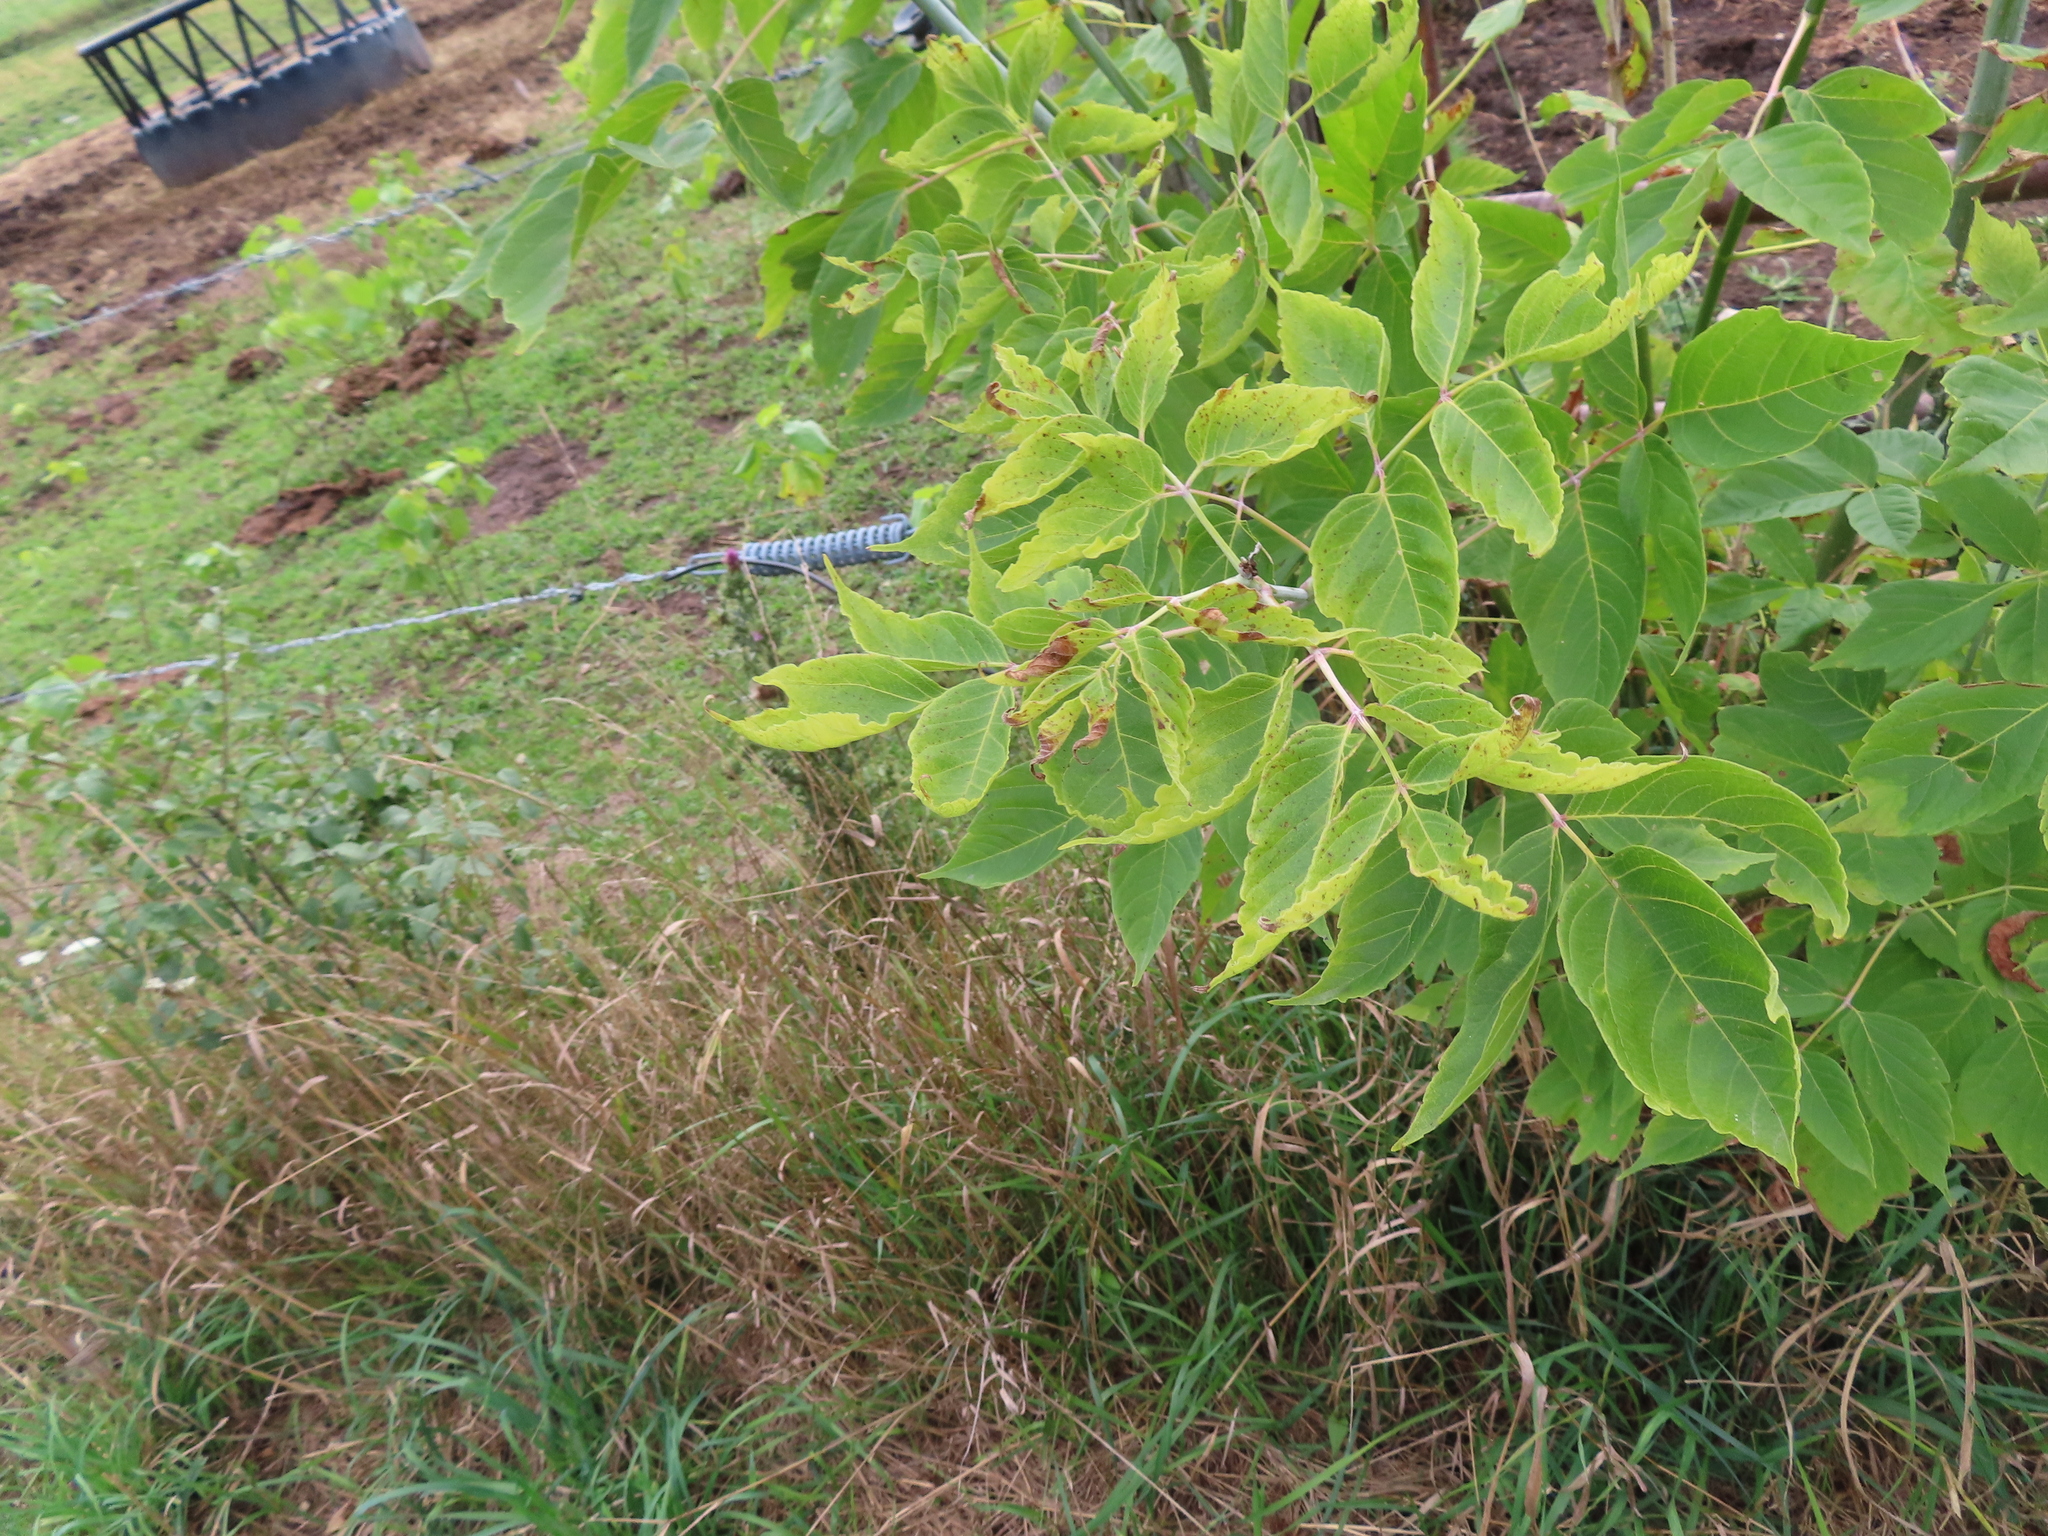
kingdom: Plantae
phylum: Tracheophyta
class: Magnoliopsida
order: Sapindales
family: Sapindaceae
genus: Acer
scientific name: Acer negundo
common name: Ashleaf maple
